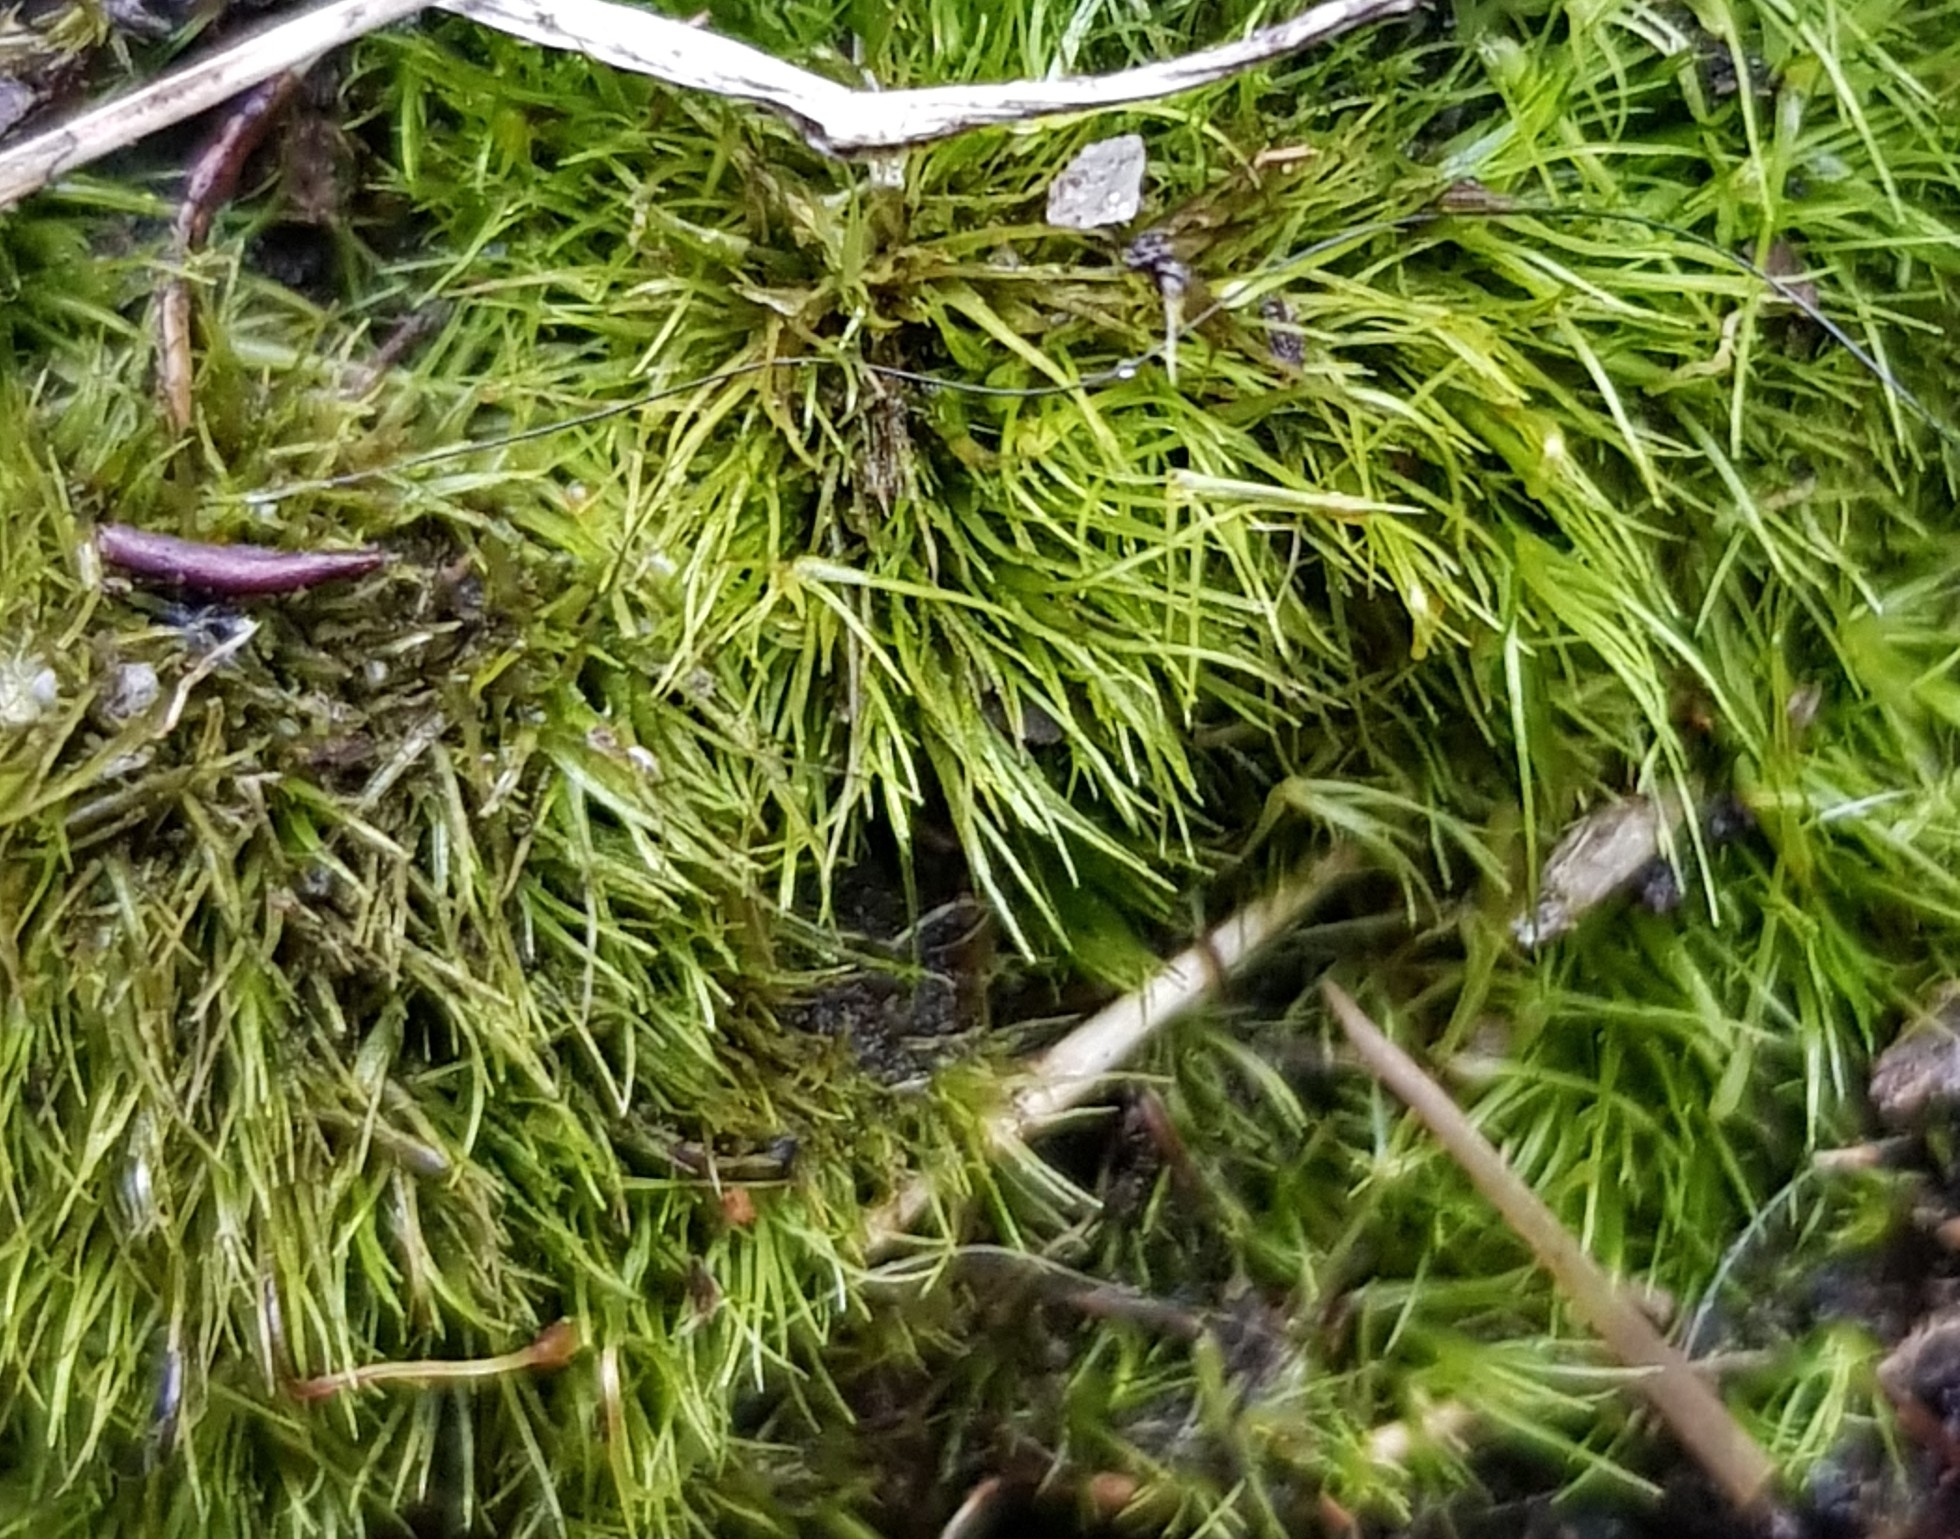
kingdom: Plantae
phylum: Bryophyta
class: Bryopsida
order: Dicranales
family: Leucobryaceae
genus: Campylopus
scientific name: Campylopus pyriformis
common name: Dwarf swan-neck moss
